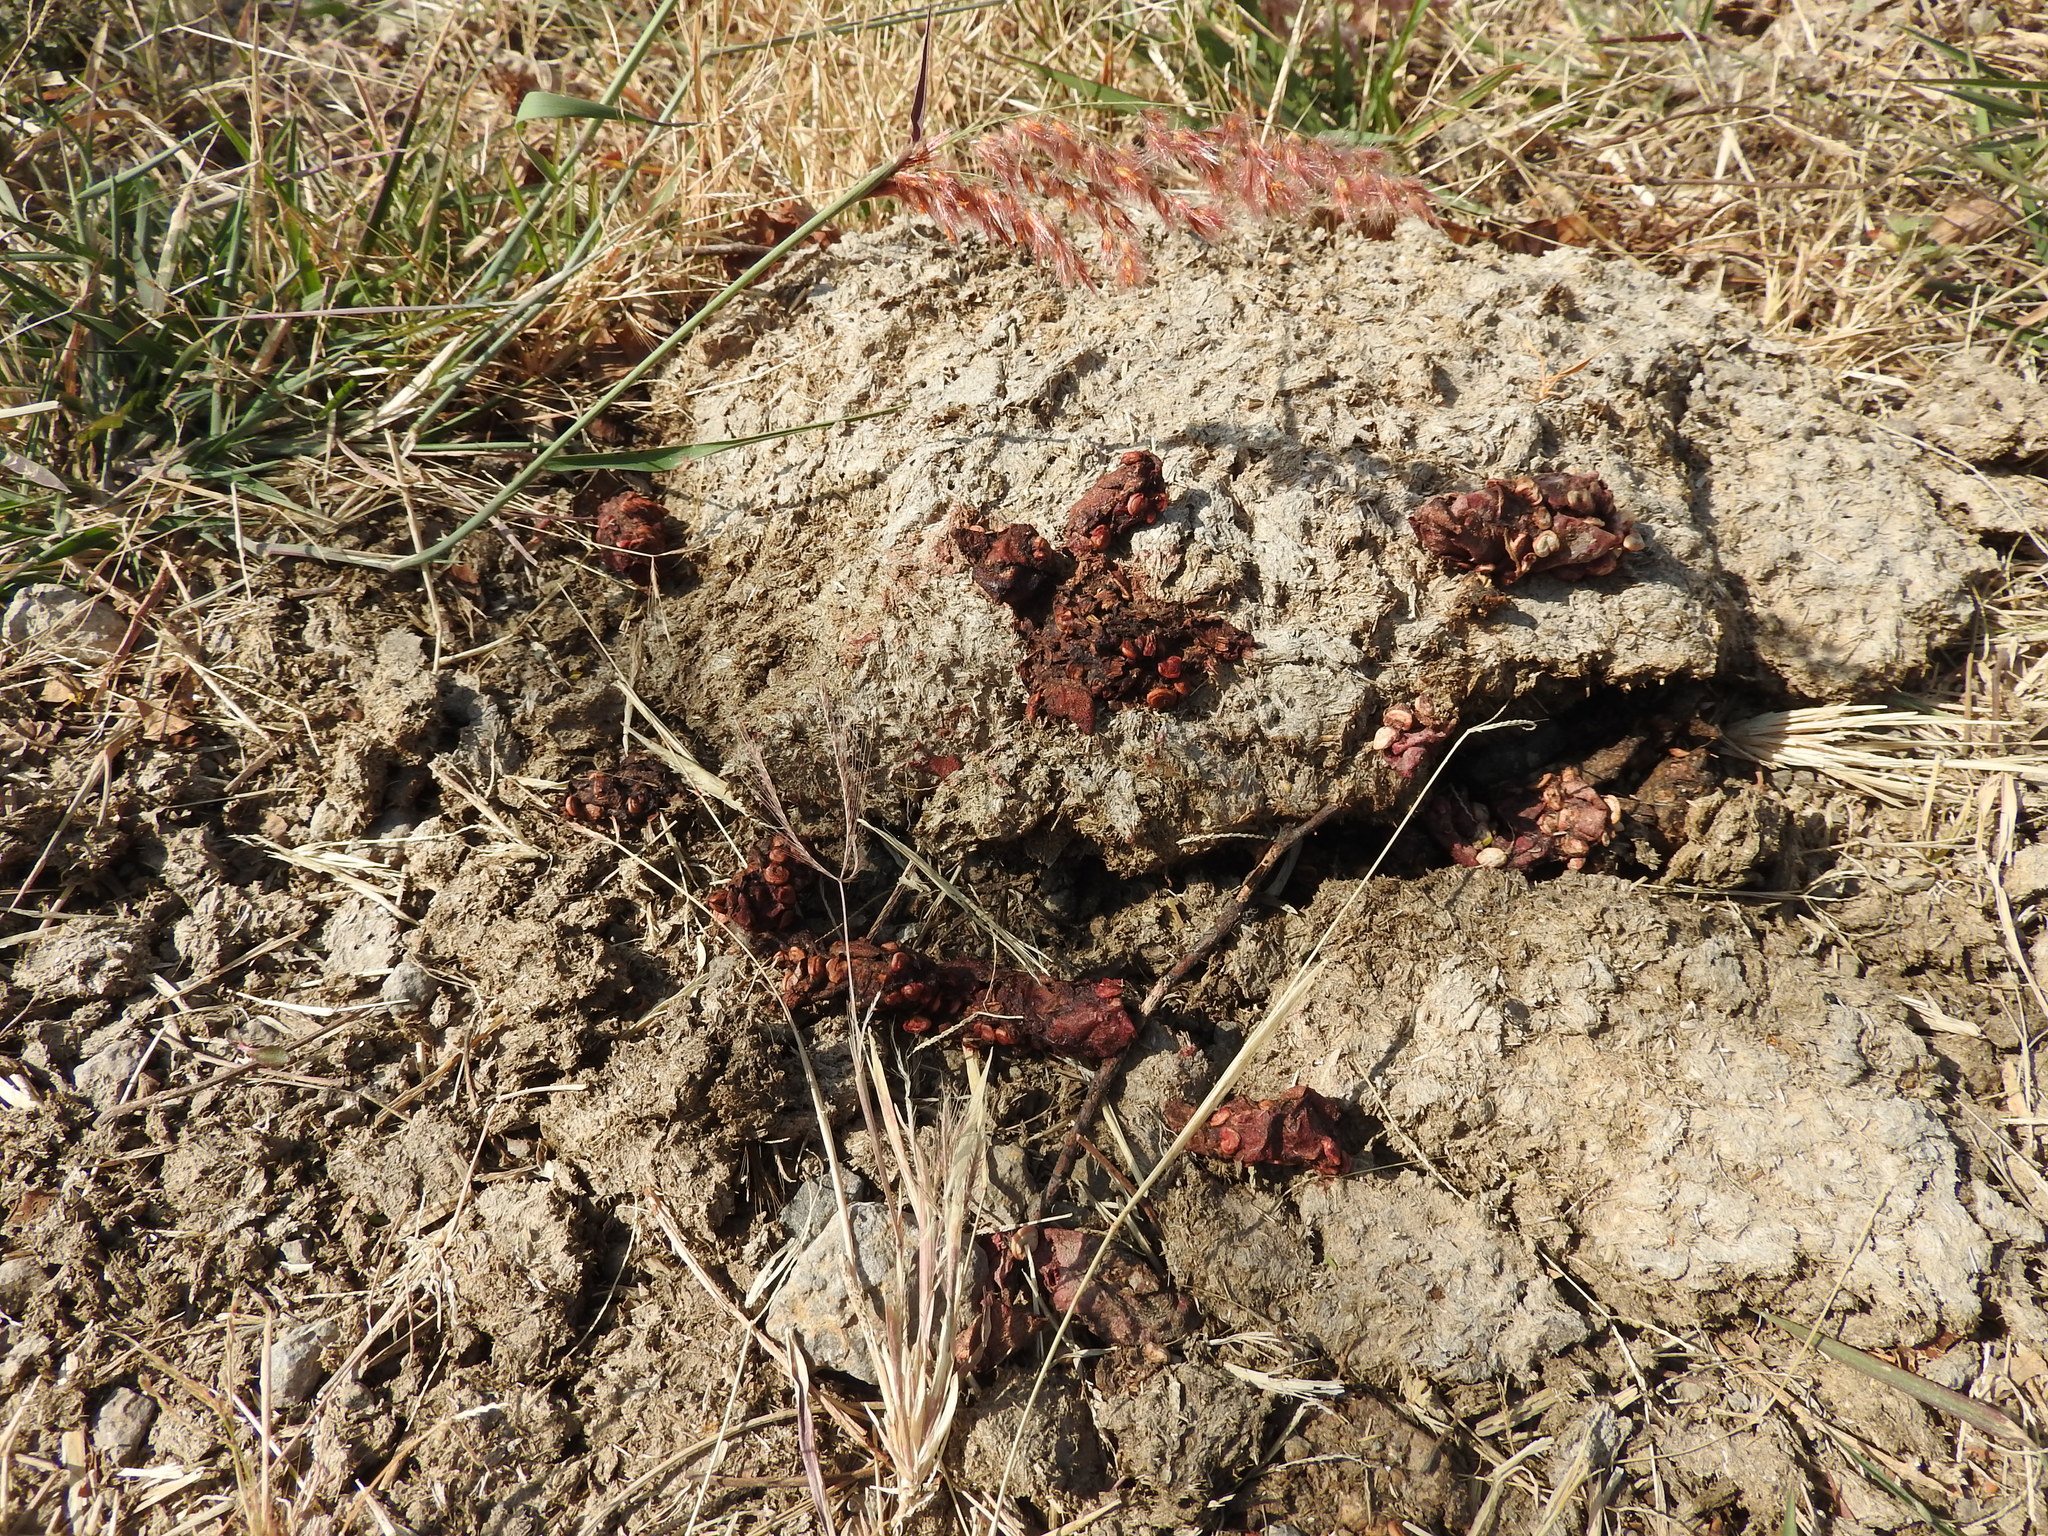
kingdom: Animalia
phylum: Chordata
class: Mammalia
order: Carnivora
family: Procyonidae
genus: Bassariscus
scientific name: Bassariscus astutus
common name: Ringtail
